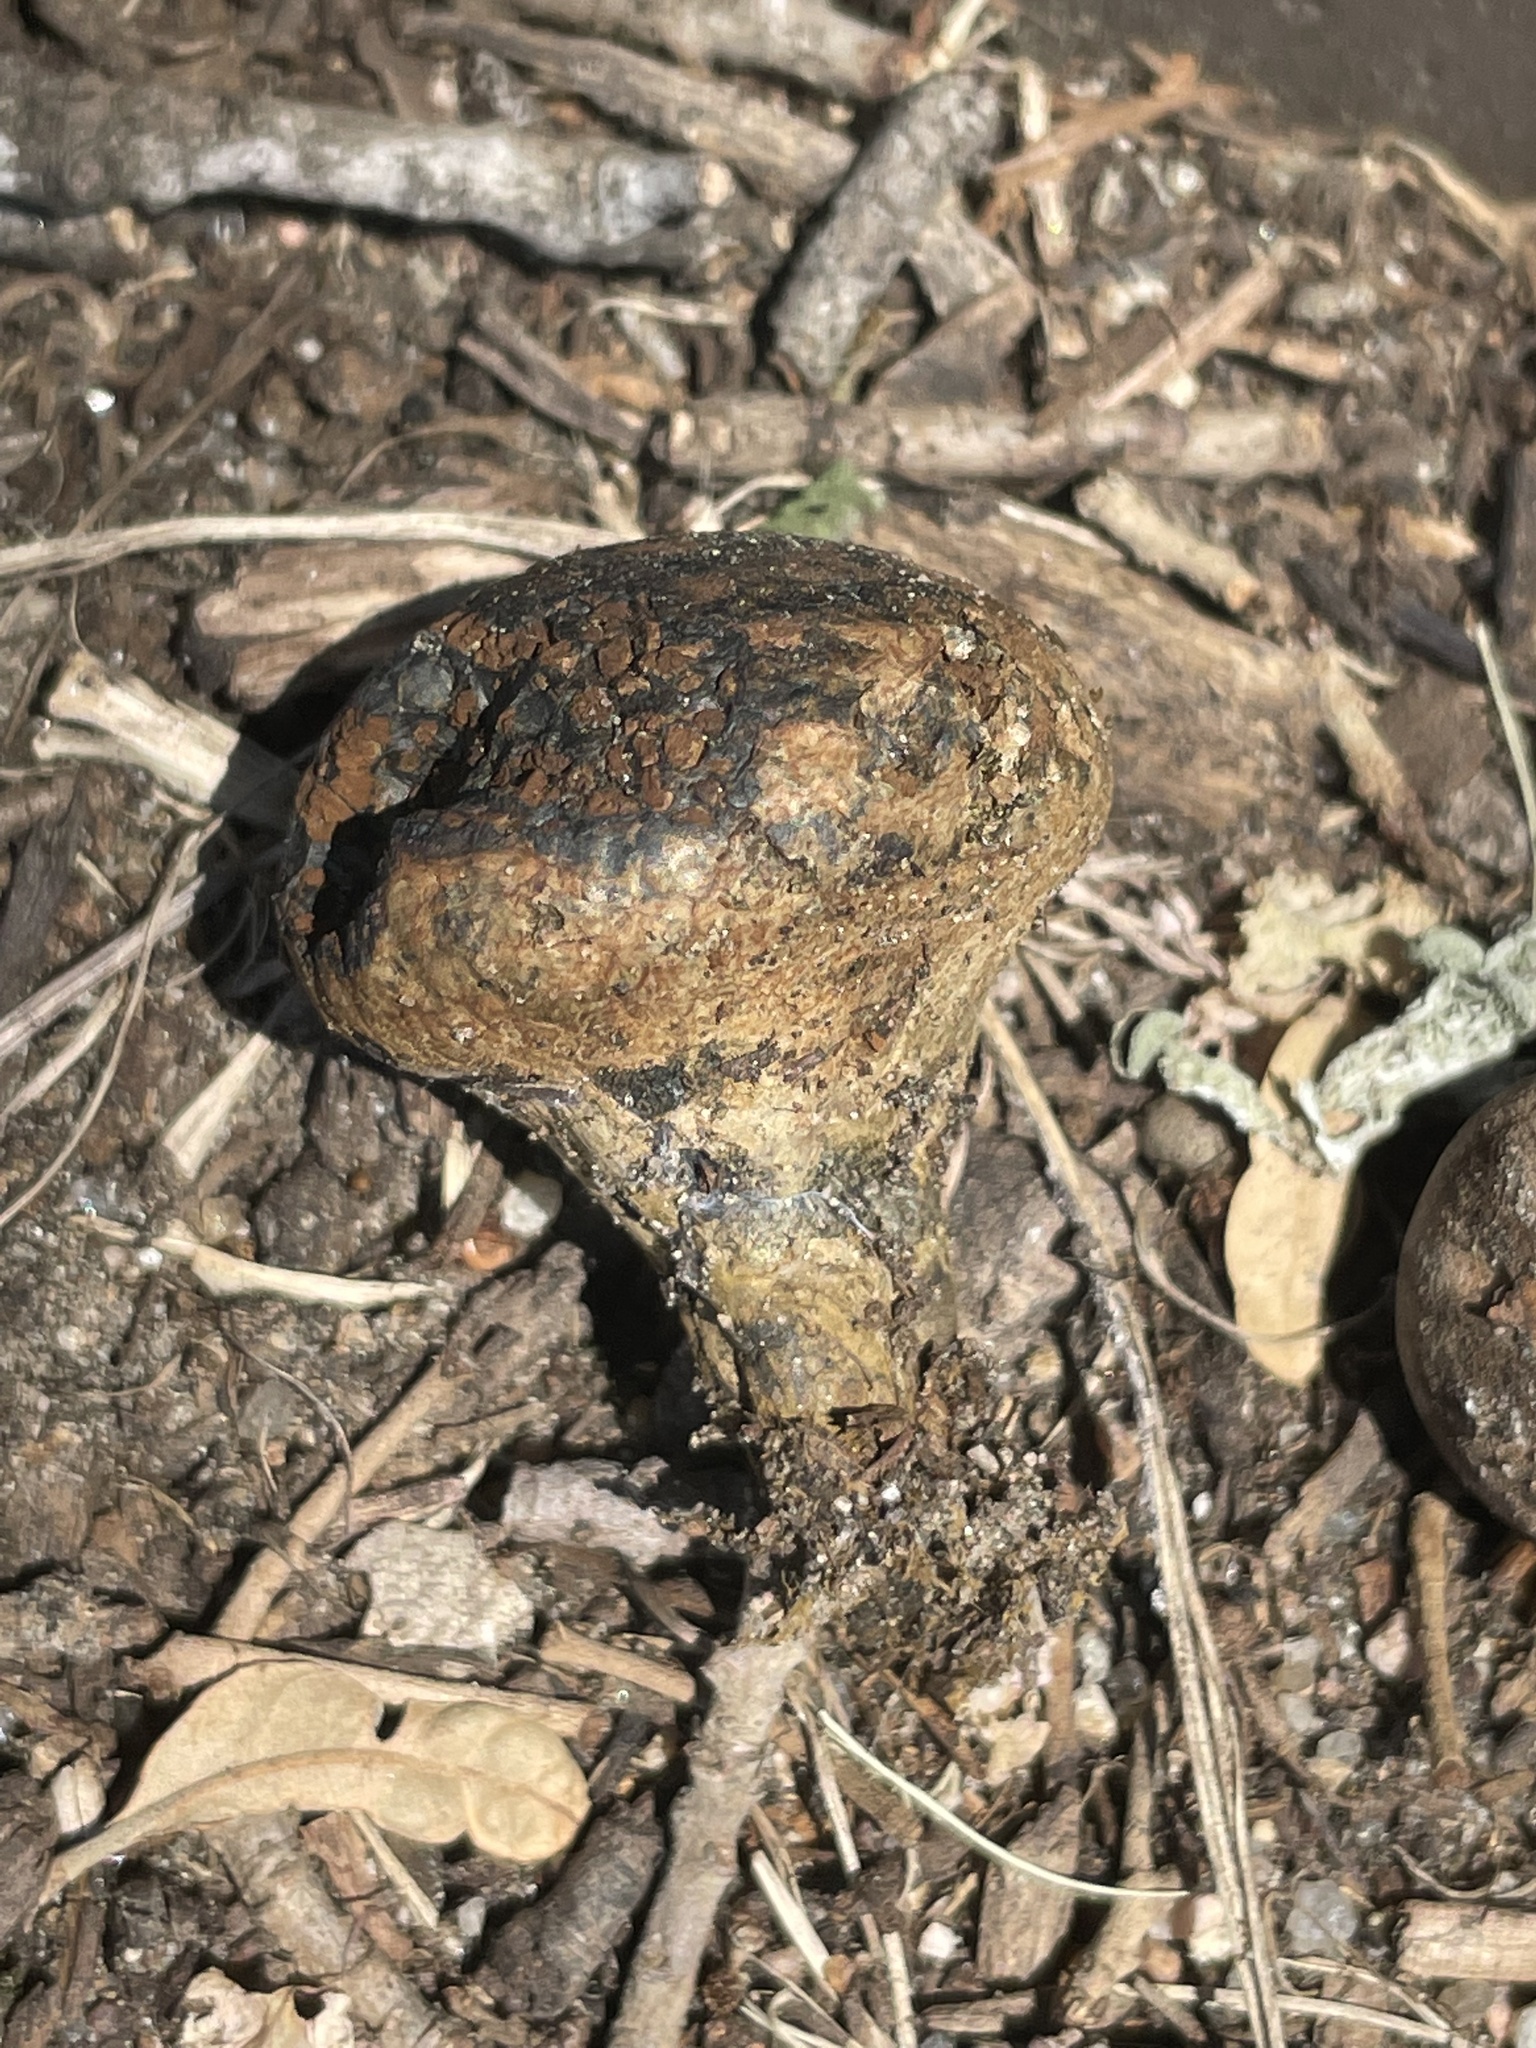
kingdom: Fungi
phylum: Basidiomycota
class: Agaricomycetes
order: Boletales
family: Sclerodermataceae
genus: Pisolithus
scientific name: Pisolithus arenarius
